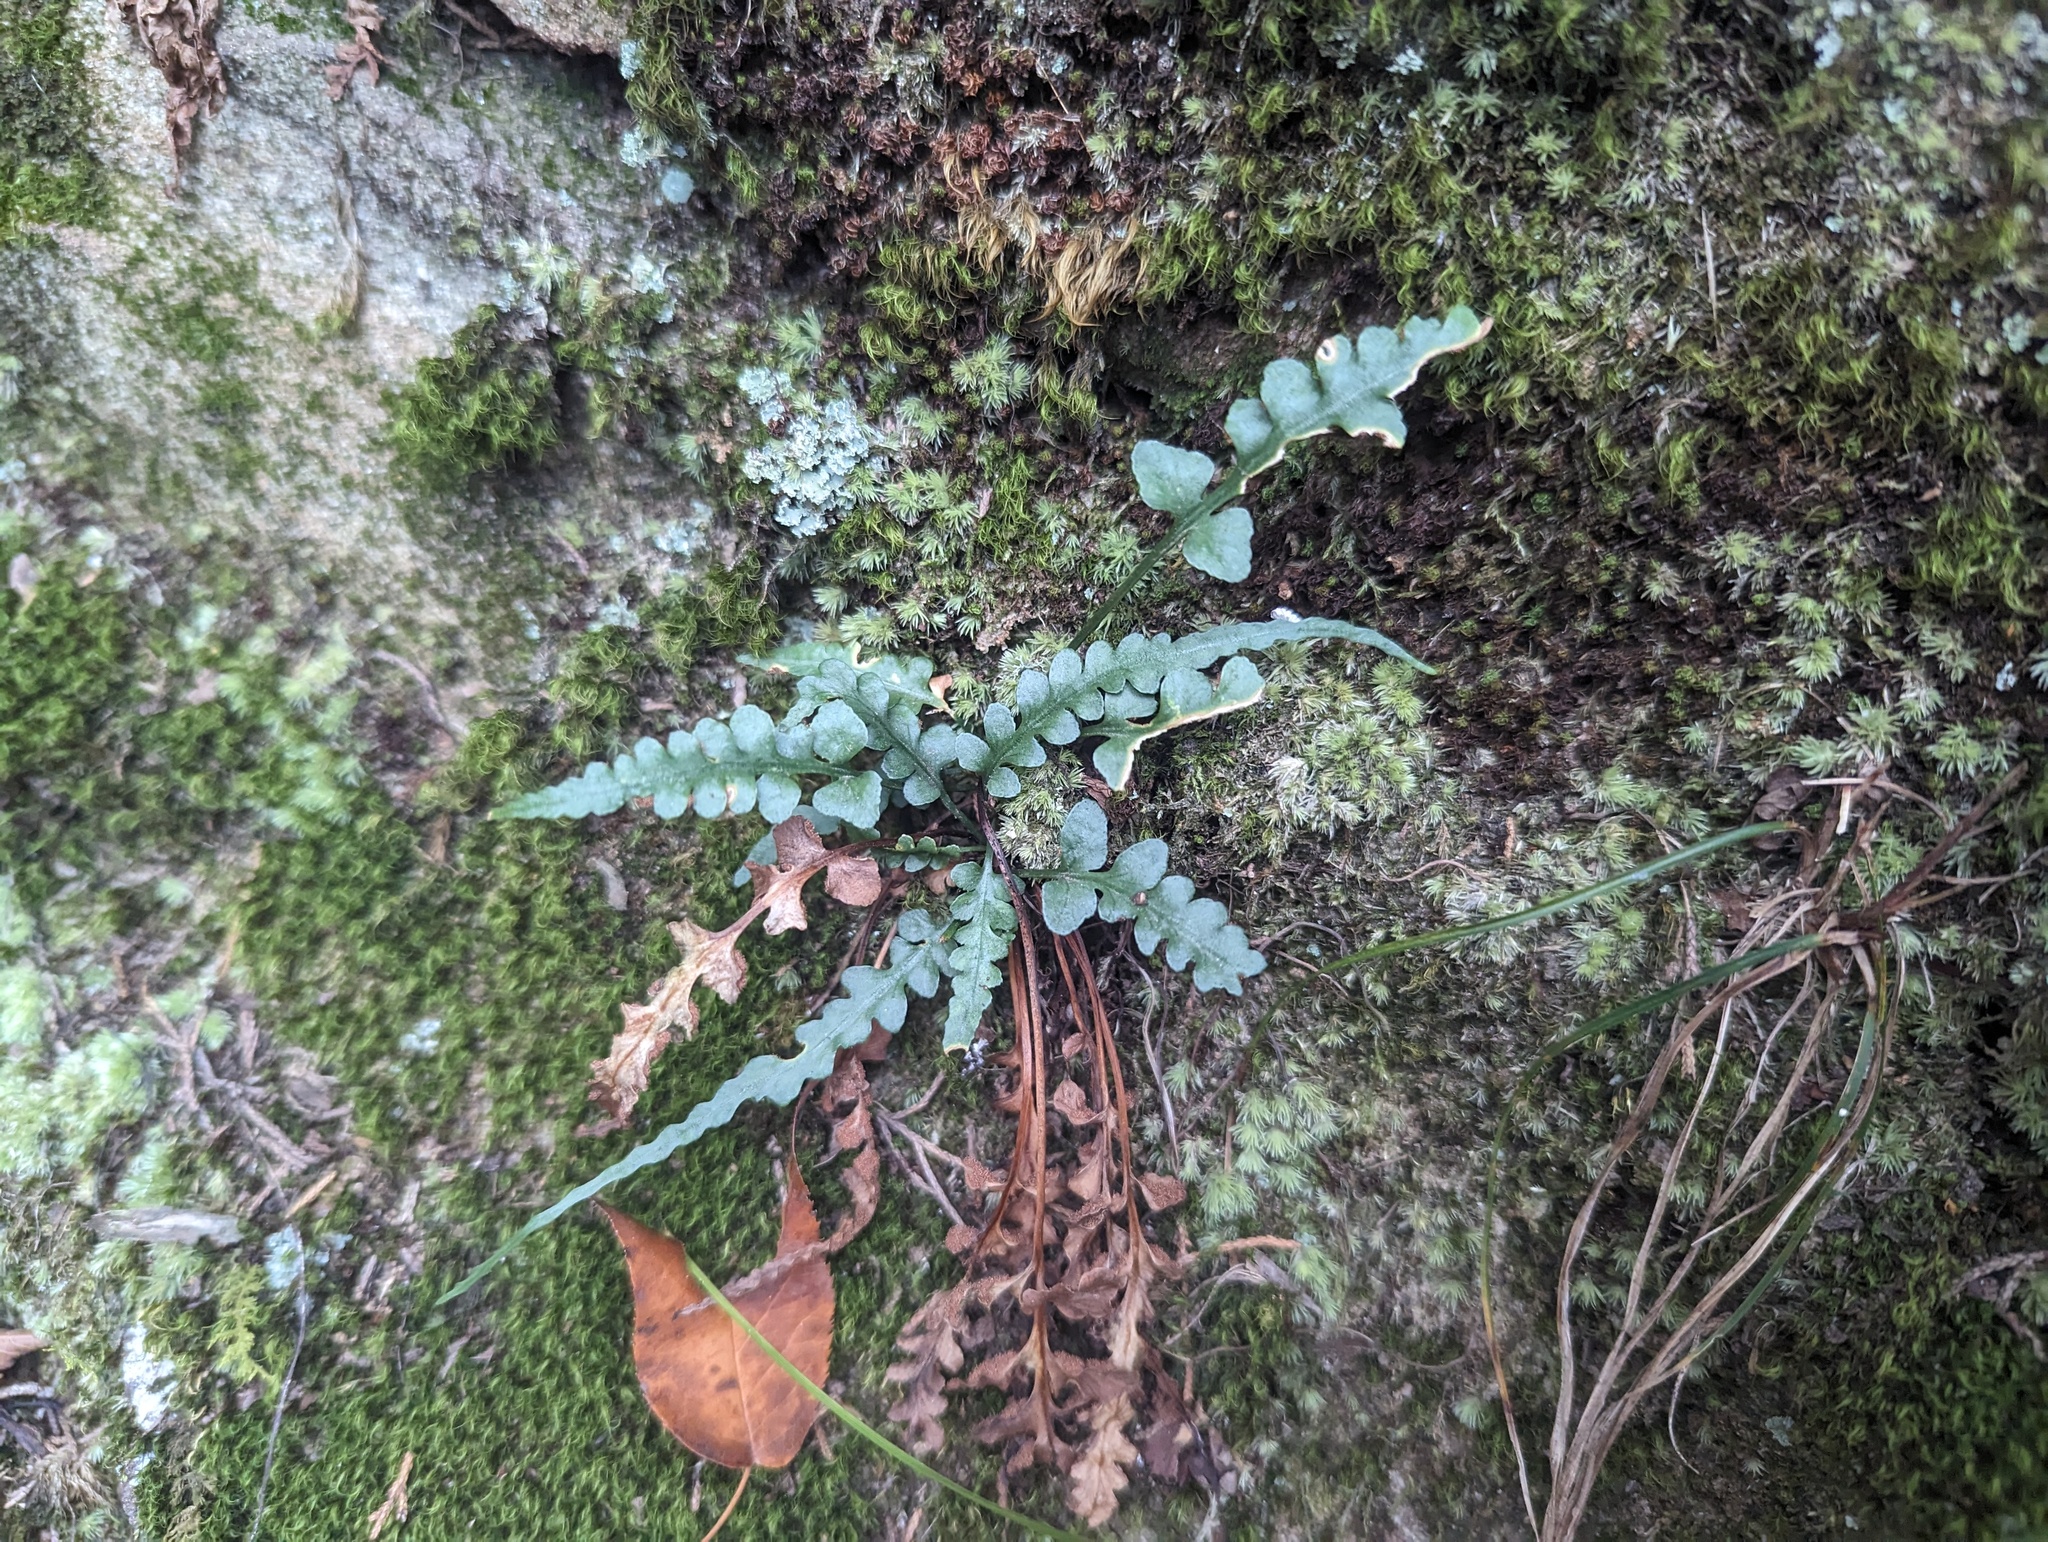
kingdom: Plantae
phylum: Tracheophyta
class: Polypodiopsida
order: Polypodiales
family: Aspleniaceae
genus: Asplenium
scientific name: Asplenium pinnatifidum
